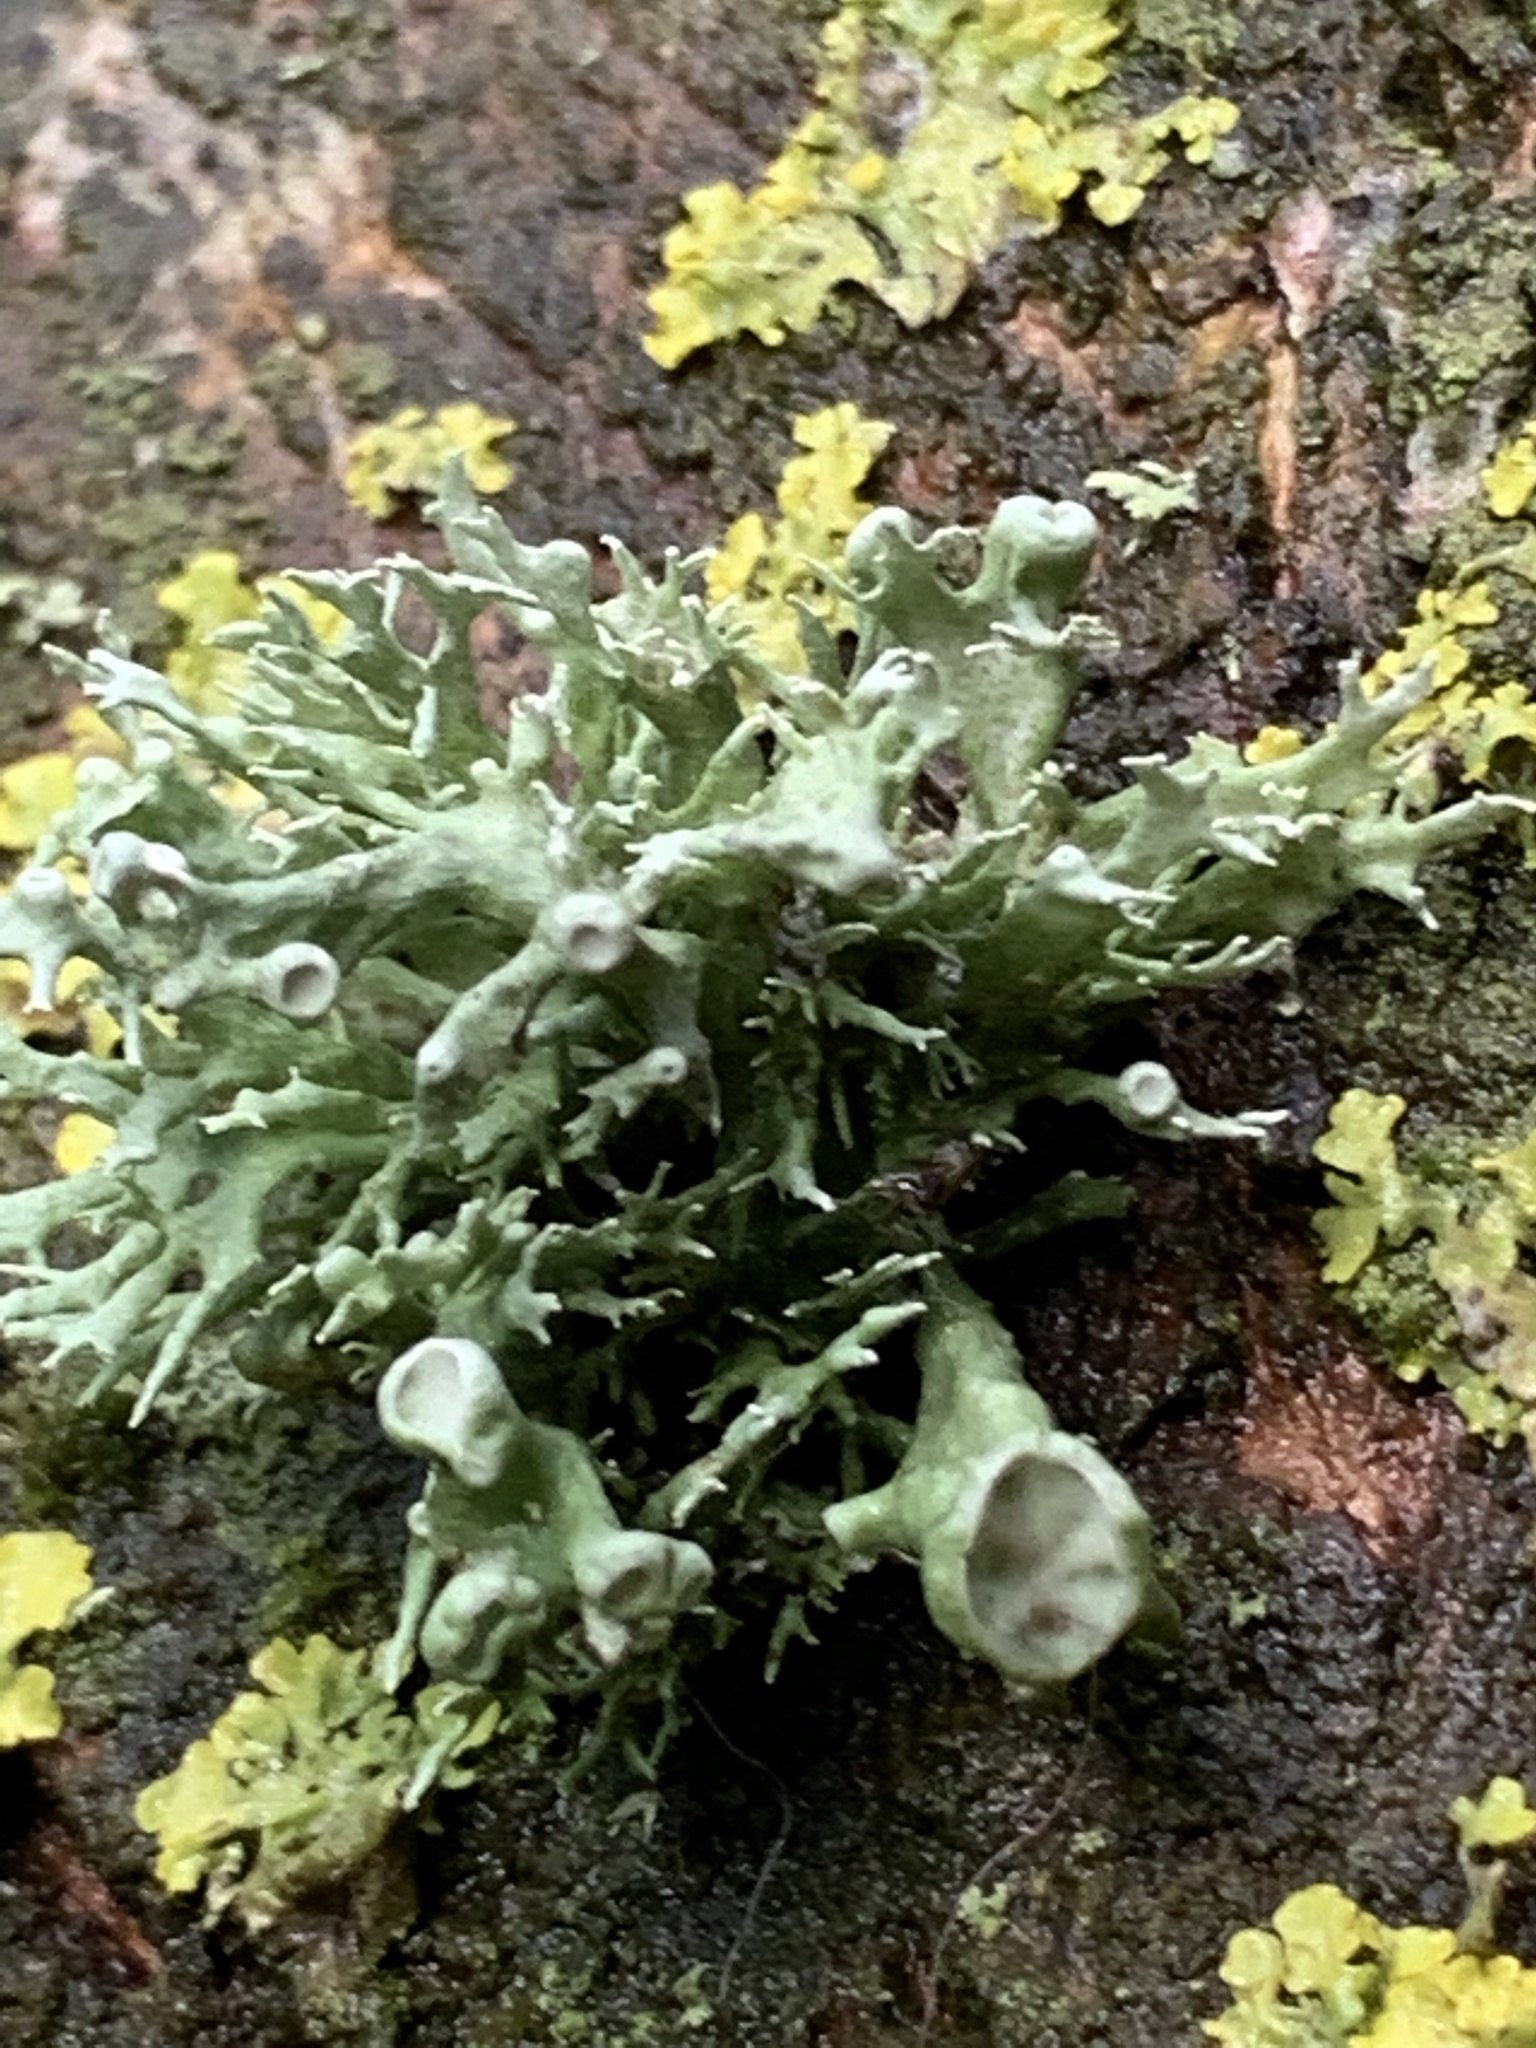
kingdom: Fungi
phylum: Ascomycota
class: Lecanoromycetes
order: Lecanorales
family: Ramalinaceae
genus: Ramalina
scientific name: Ramalina fastigiata
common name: Dotted ribbon lichen
